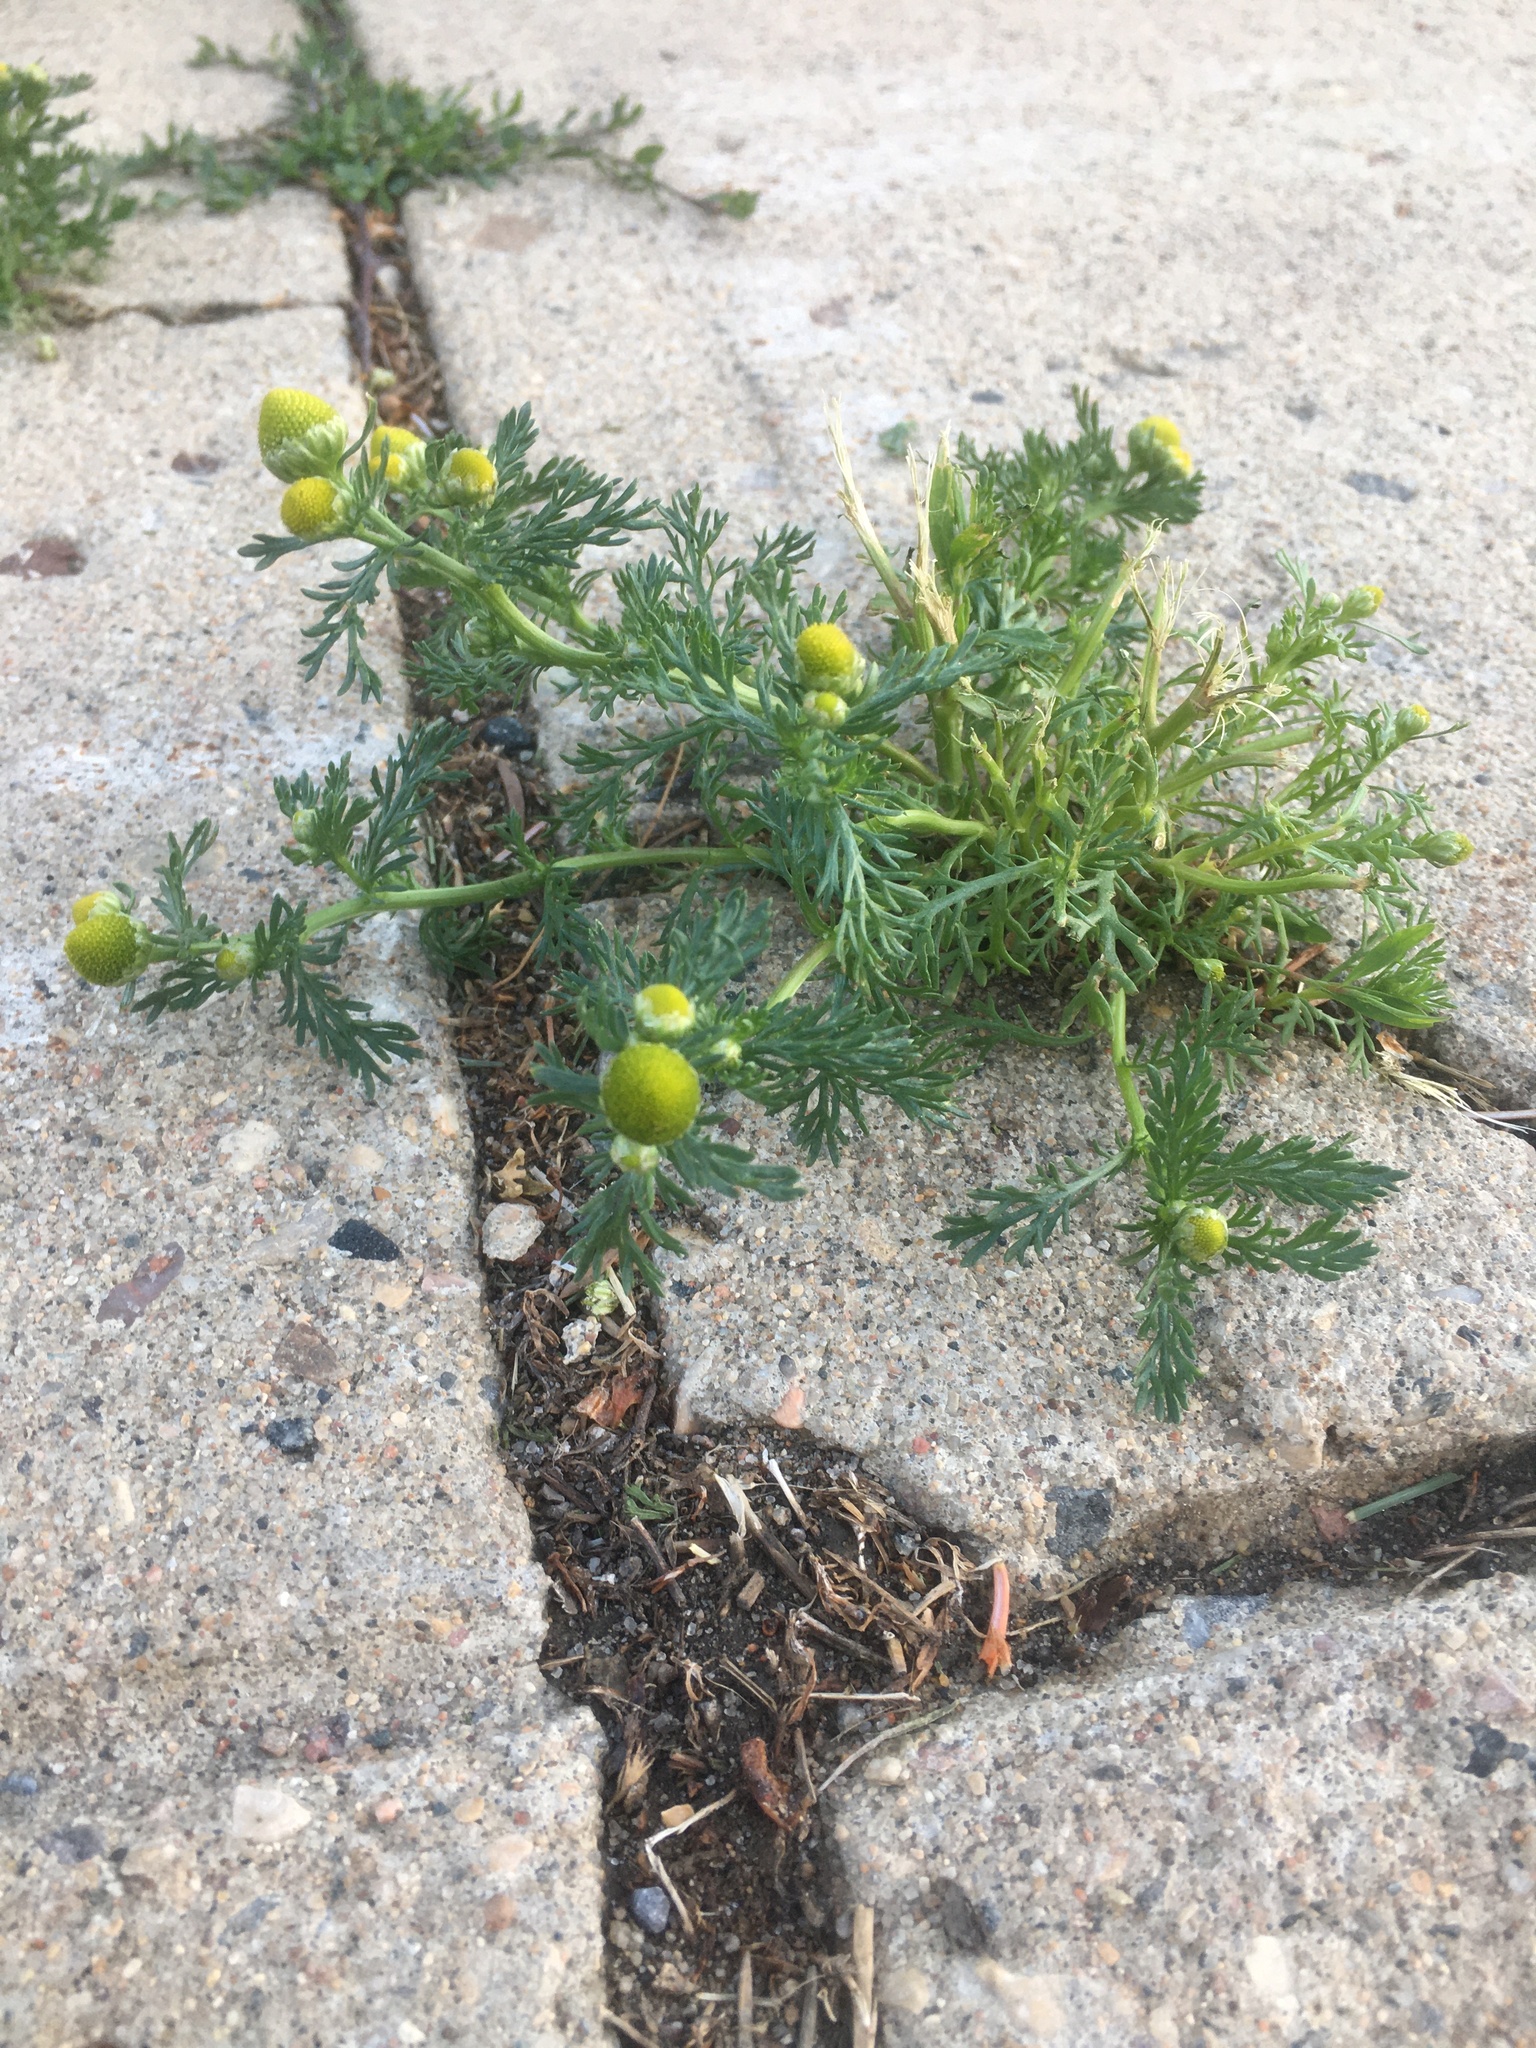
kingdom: Plantae
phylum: Tracheophyta
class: Magnoliopsida
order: Asterales
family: Asteraceae
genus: Matricaria
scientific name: Matricaria discoidea
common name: Disc mayweed
